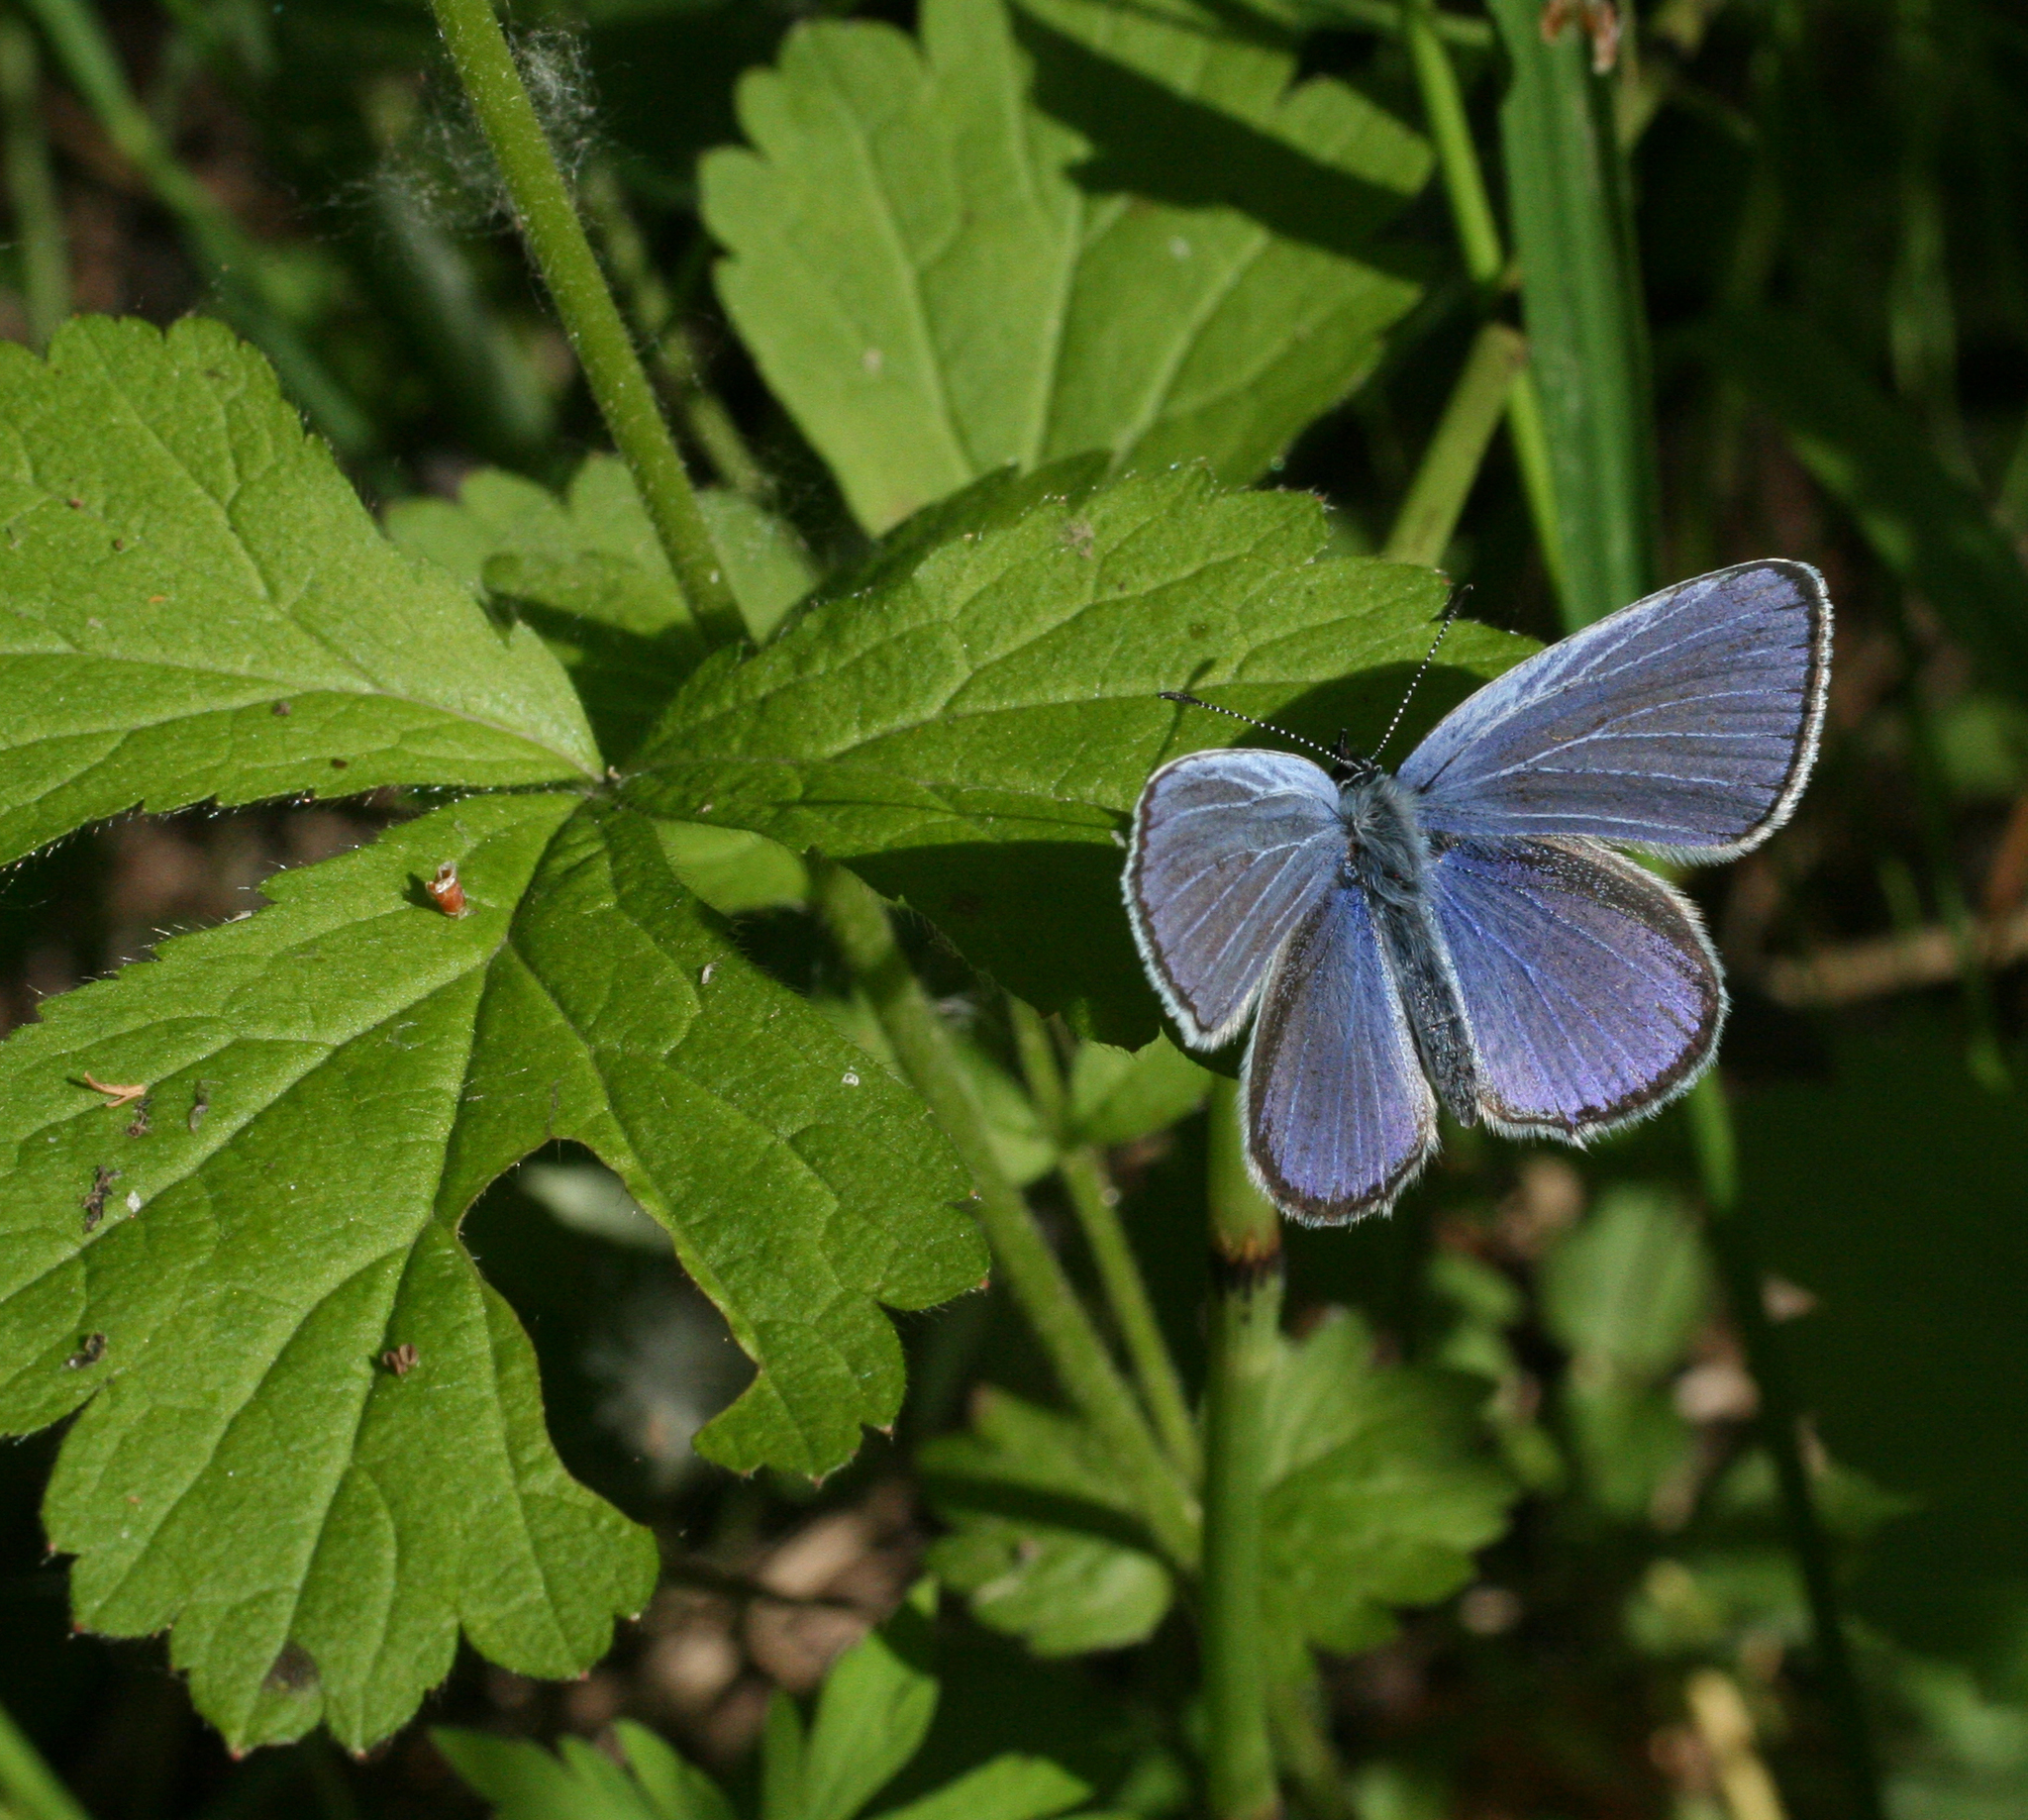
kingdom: Animalia
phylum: Arthropoda
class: Insecta
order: Lepidoptera
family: Lycaenidae
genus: Elkalyce
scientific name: Elkalyce alcetas
